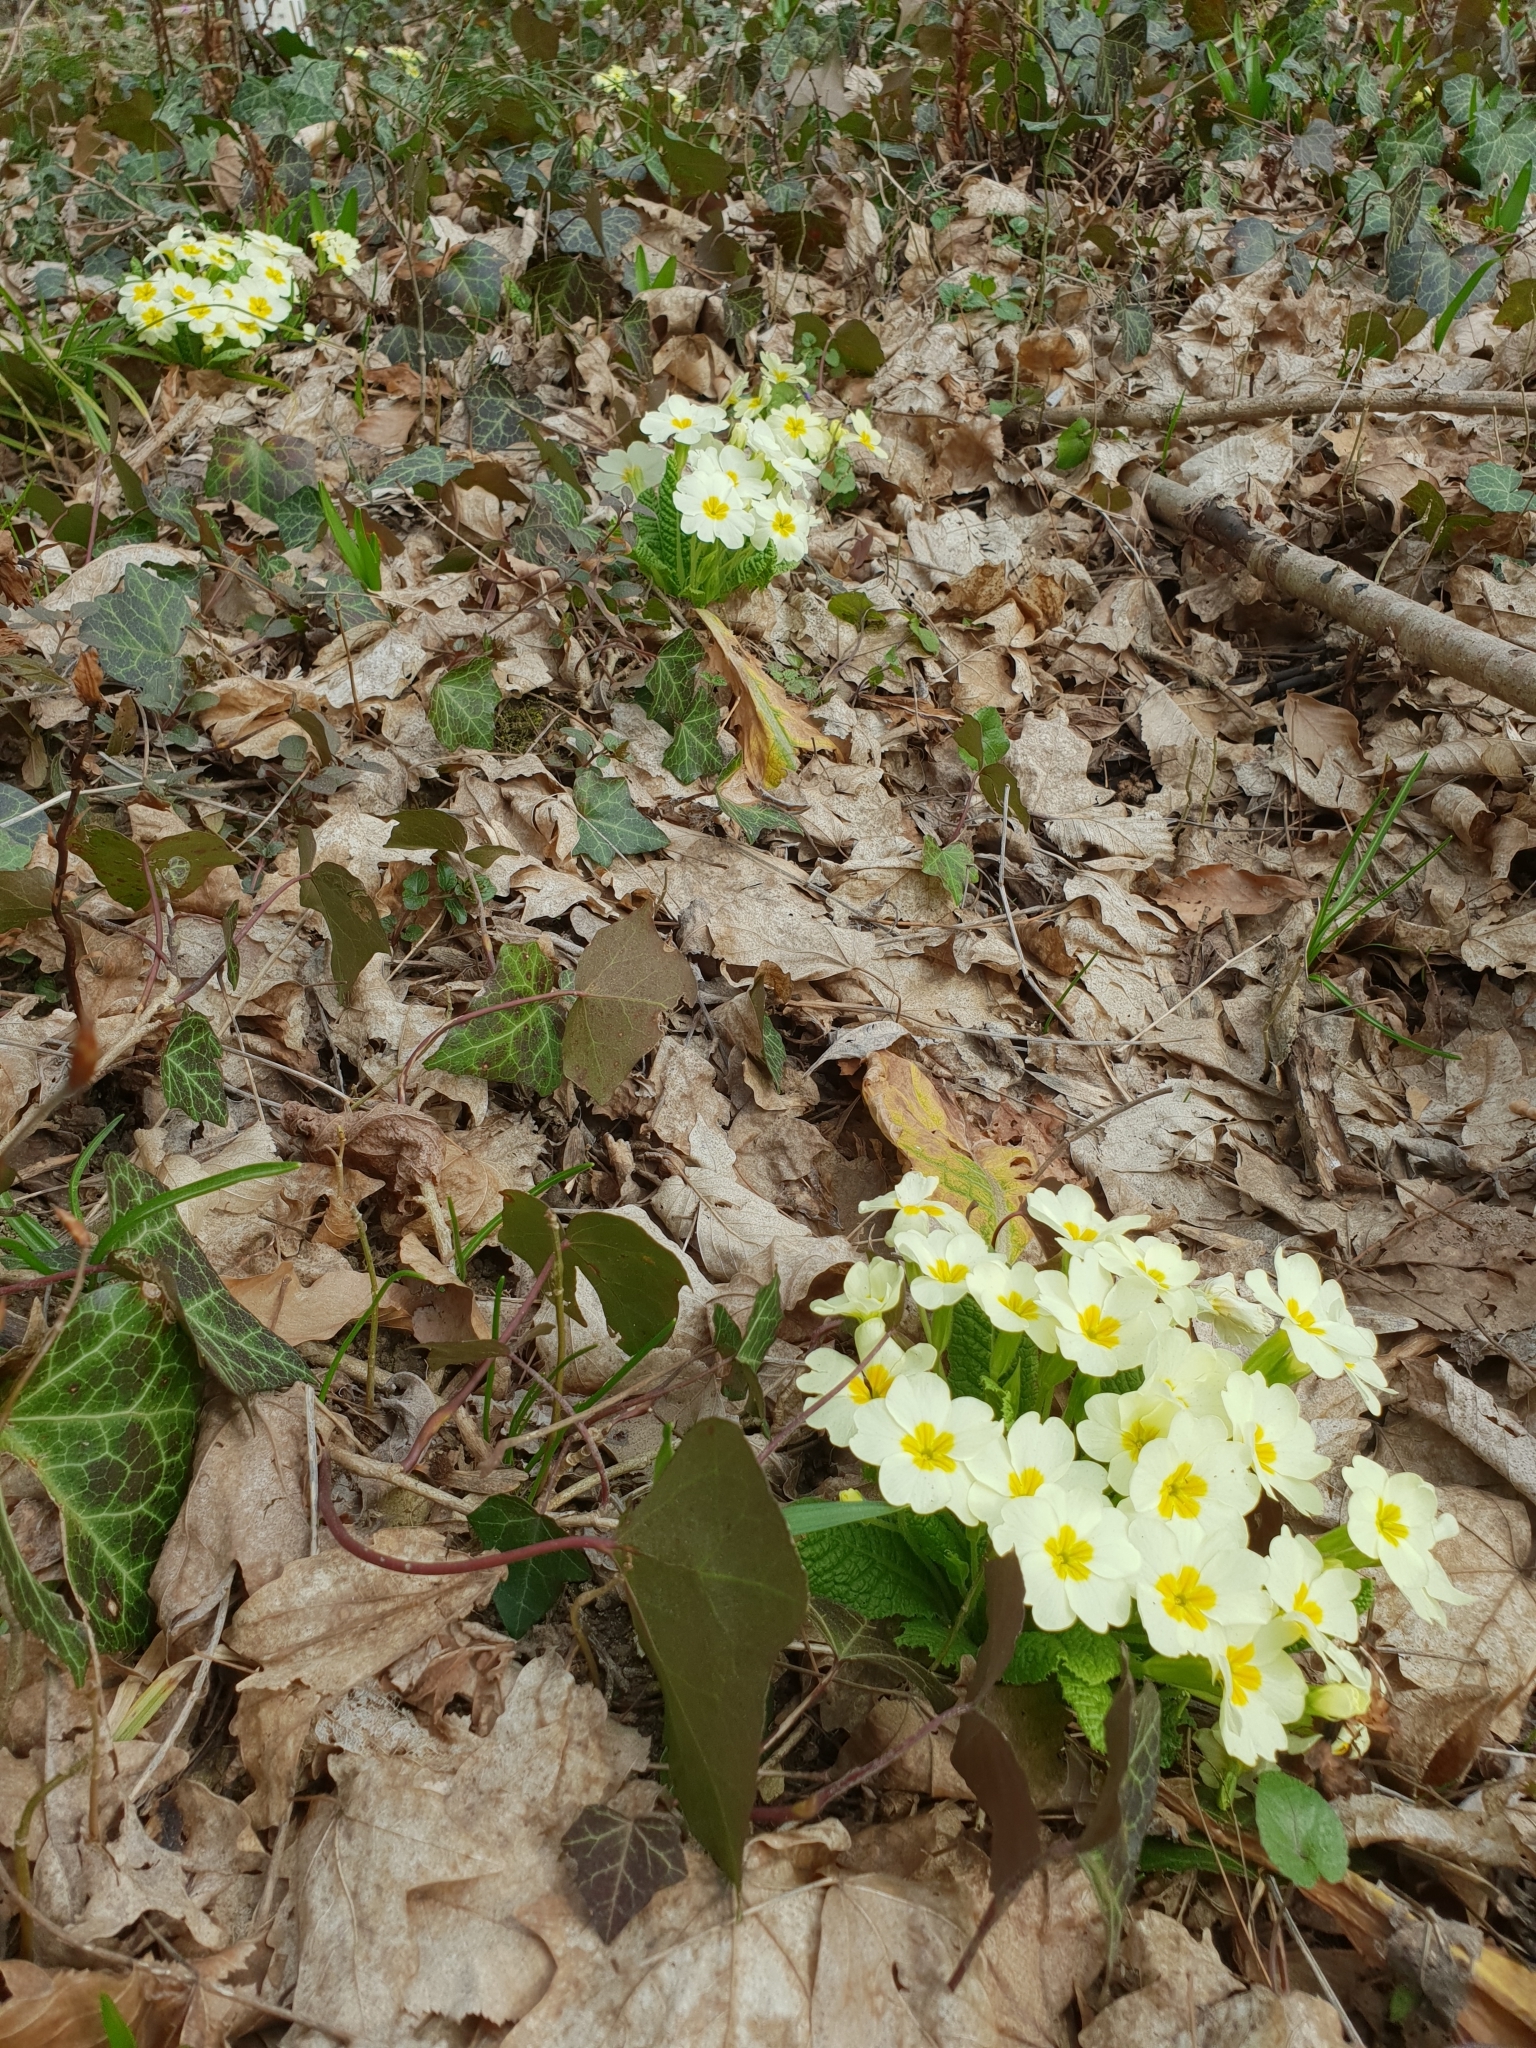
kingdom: Plantae
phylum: Tracheophyta
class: Magnoliopsida
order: Ericales
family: Primulaceae
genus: Primula
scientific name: Primula vulgaris
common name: Primrose
